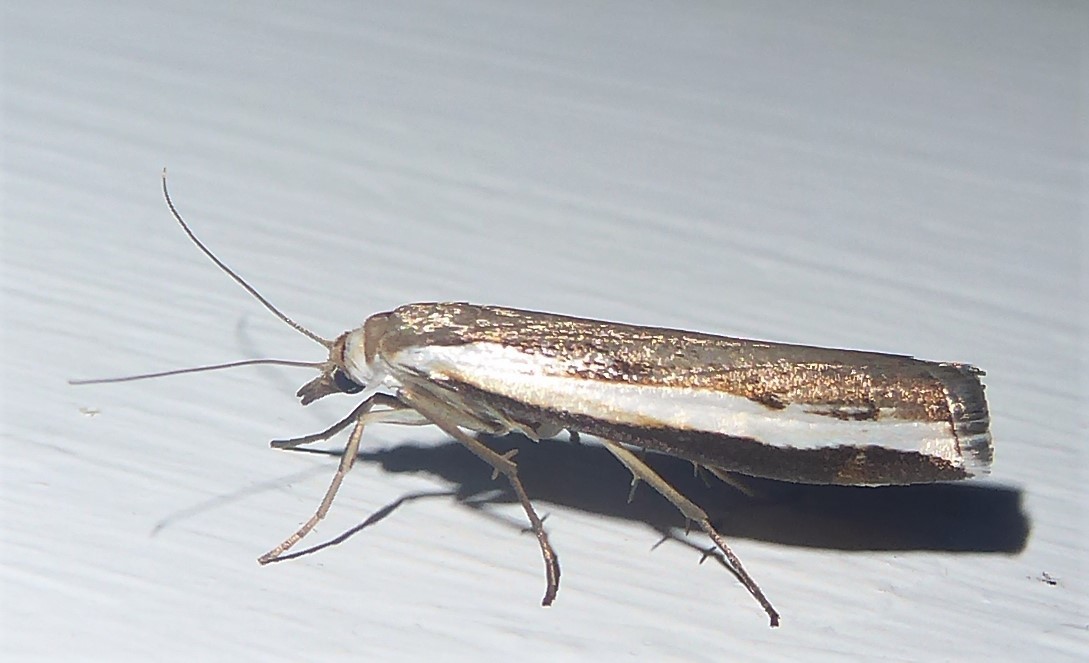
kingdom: Animalia
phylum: Arthropoda
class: Insecta
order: Lepidoptera
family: Crambidae
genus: Orocrambus
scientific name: Orocrambus flexuosellus
